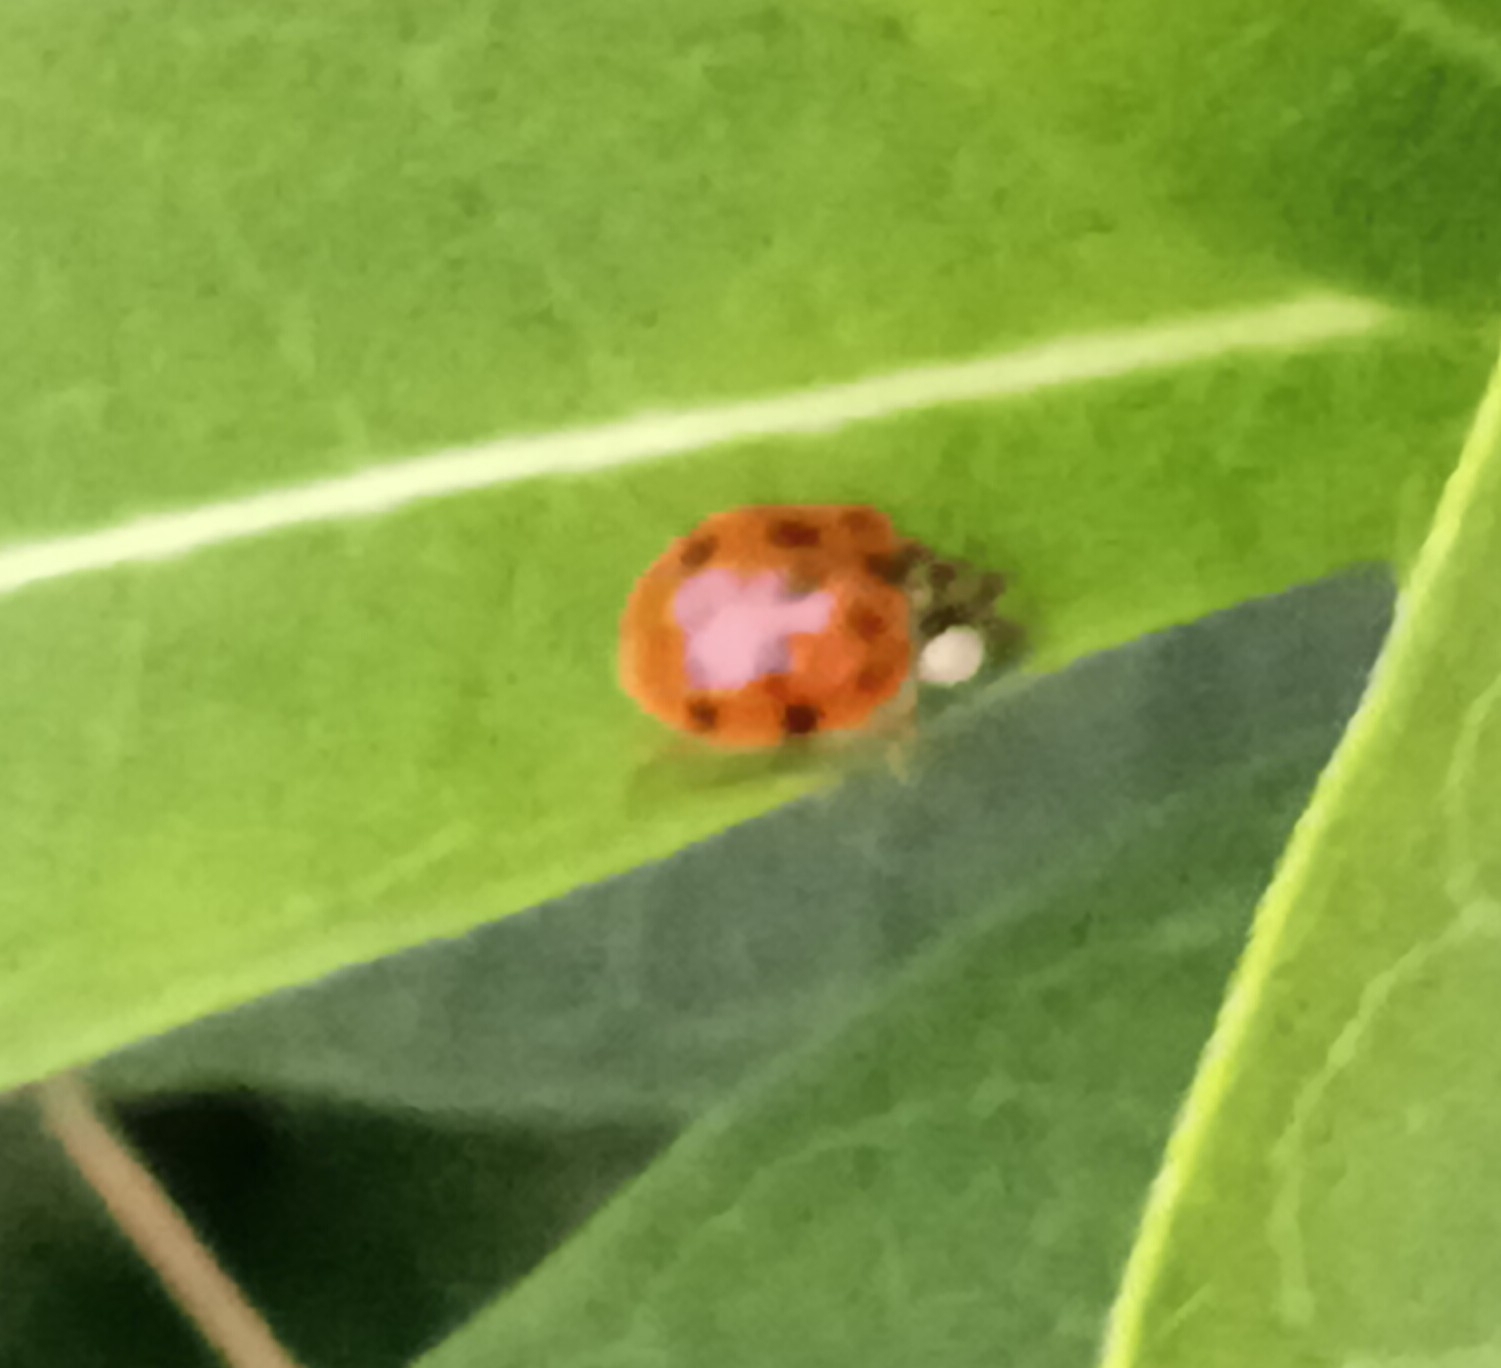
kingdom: Animalia
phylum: Arthropoda
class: Insecta
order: Coleoptera
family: Coccinellidae
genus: Harmonia
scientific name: Harmonia axyridis
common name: Harlequin ladybird
